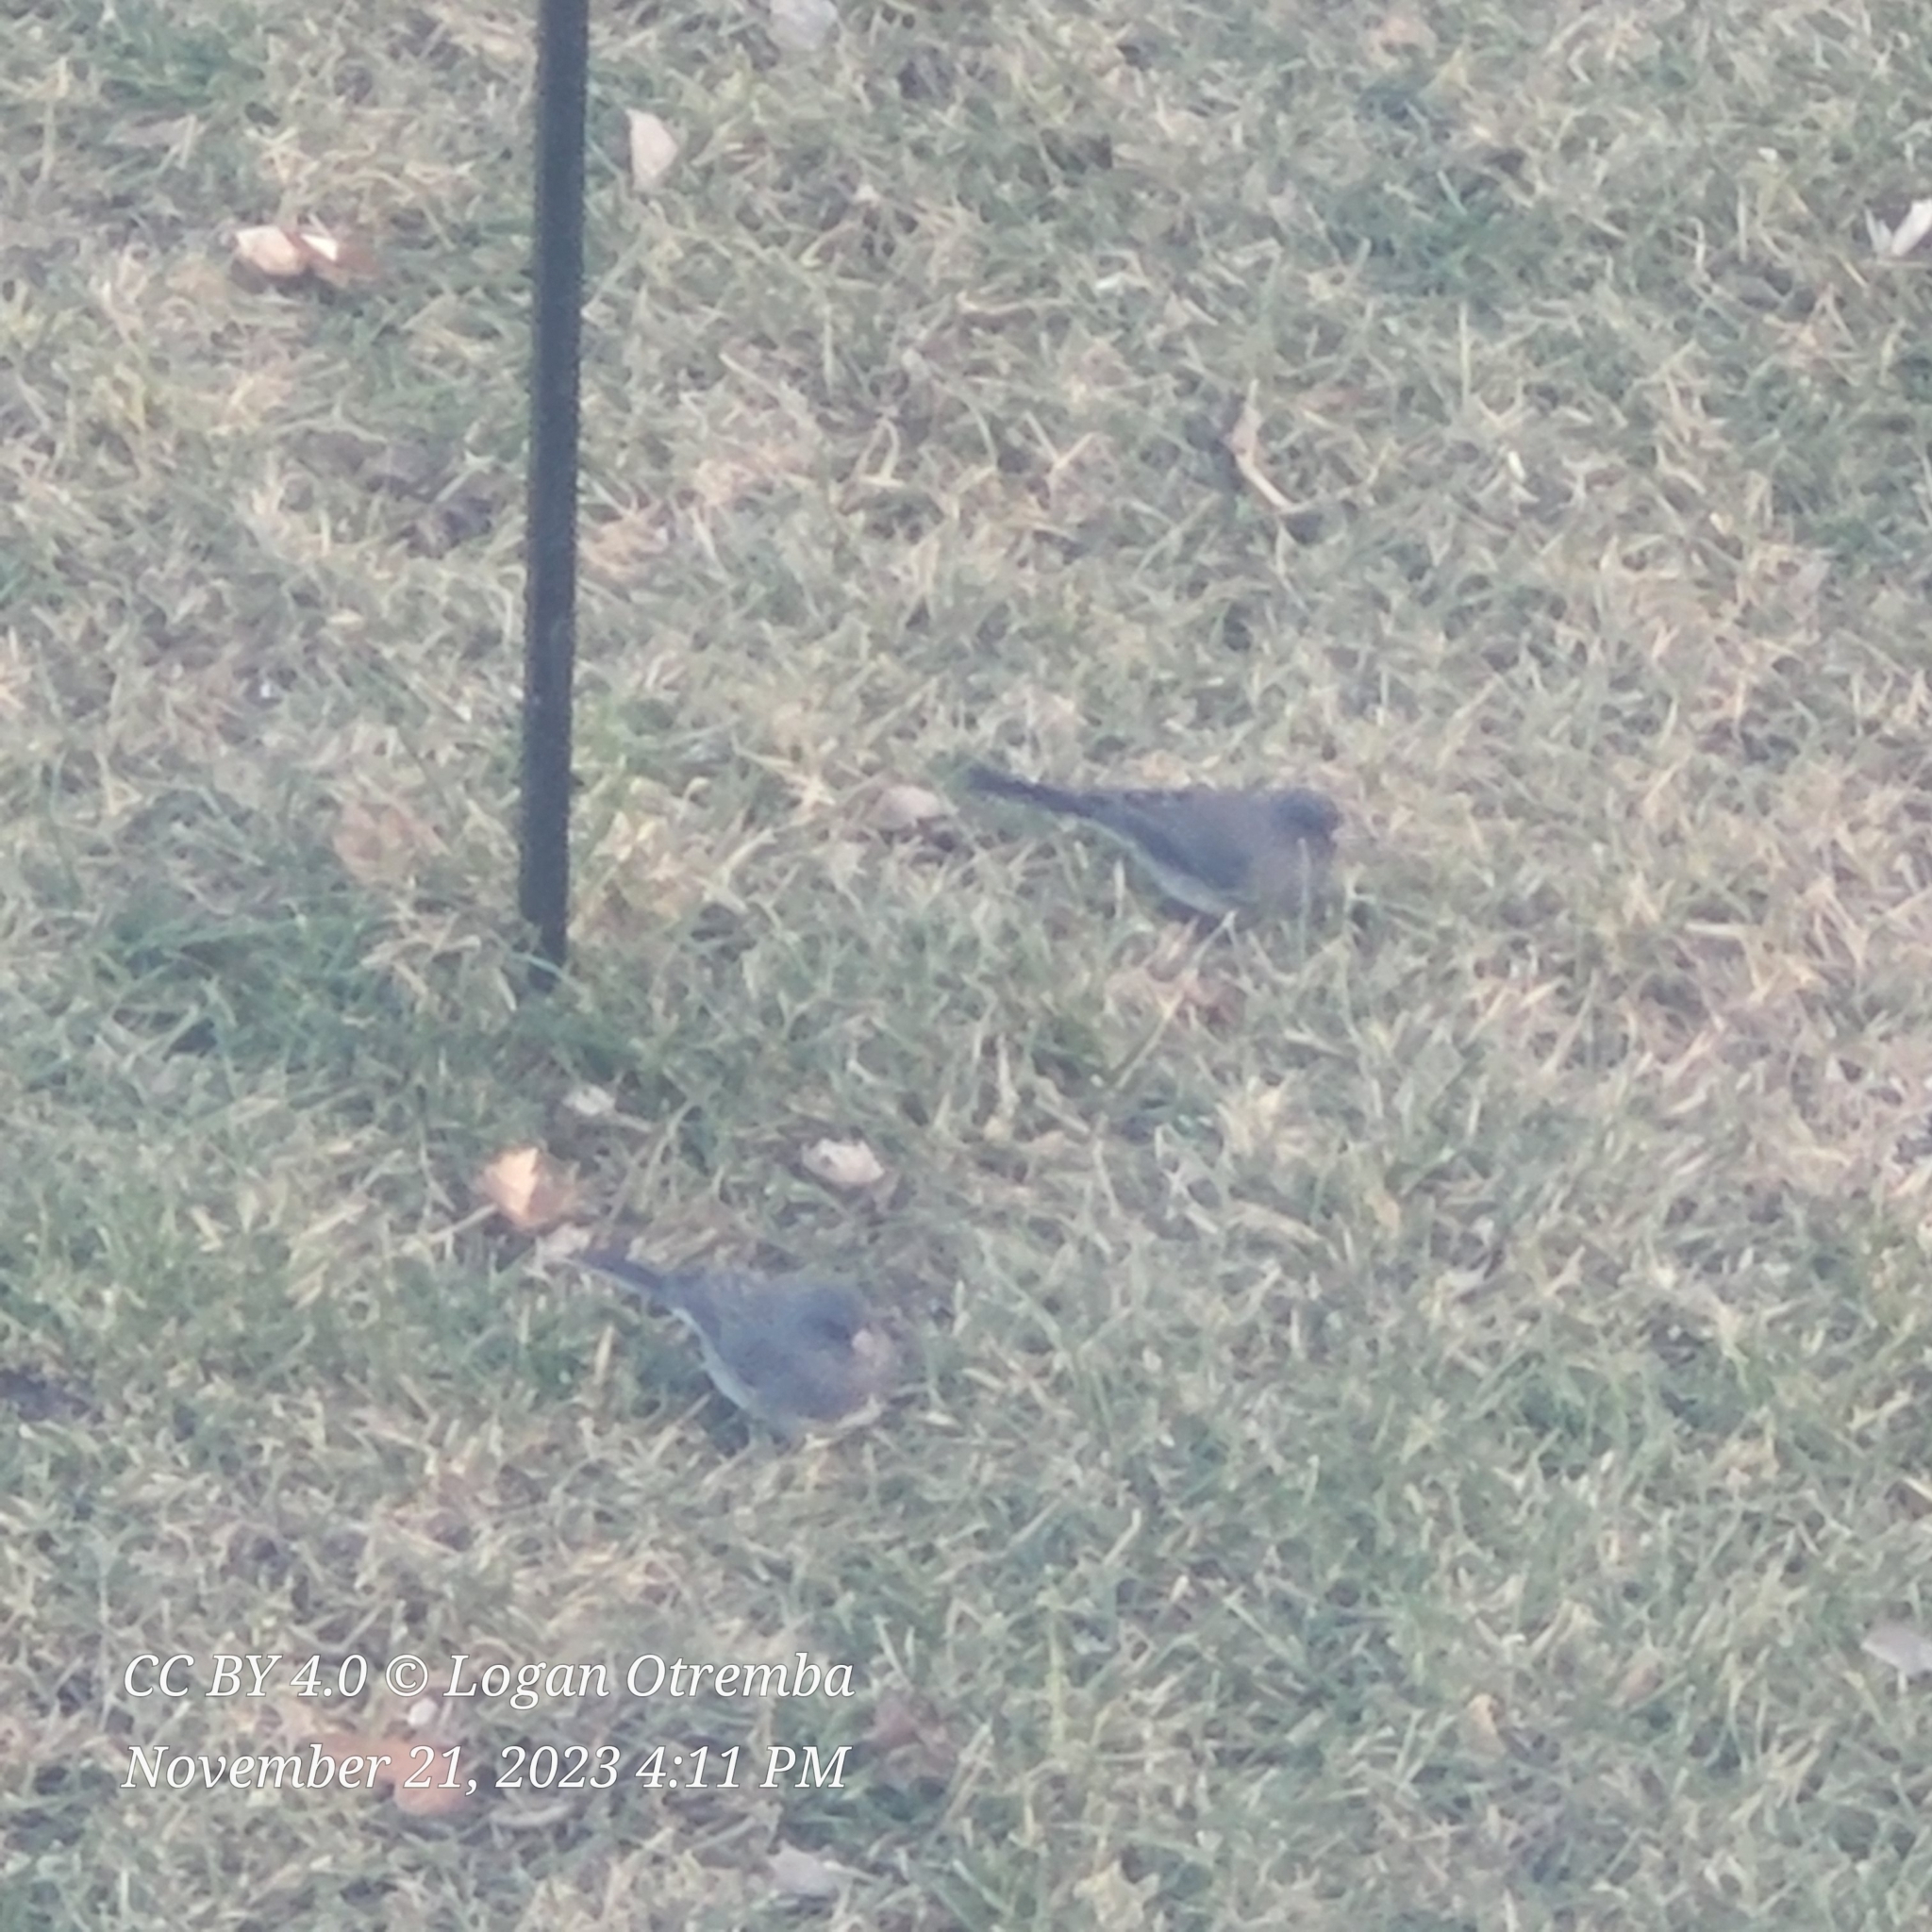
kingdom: Animalia
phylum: Chordata
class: Aves
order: Passeriformes
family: Passerellidae
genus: Junco
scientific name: Junco hyemalis
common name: Dark-eyed junco
